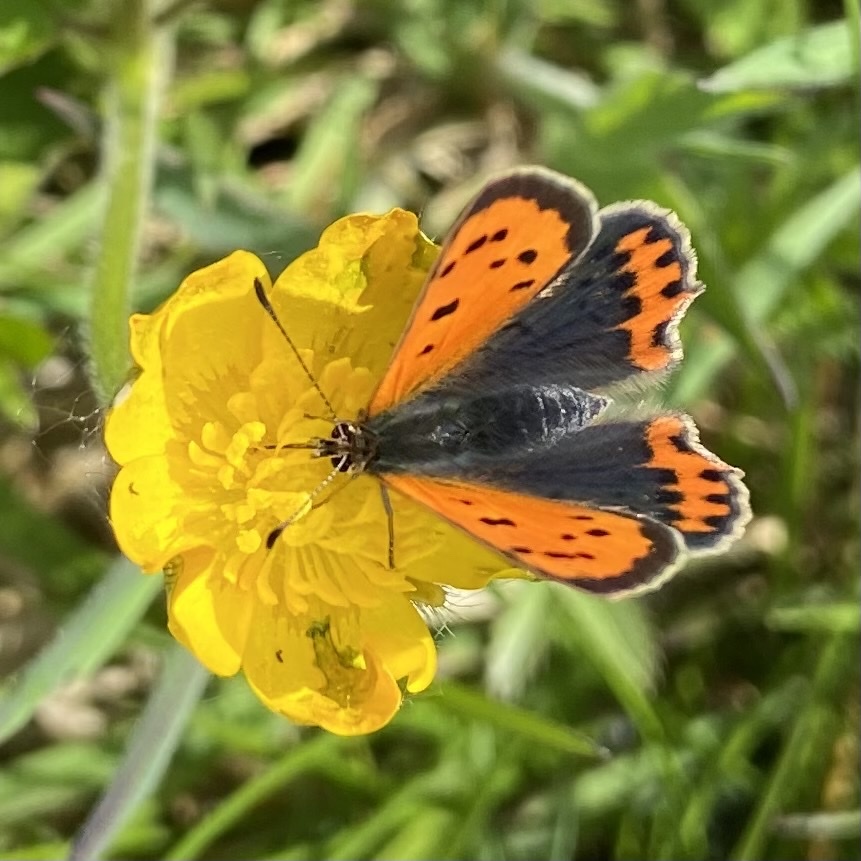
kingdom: Animalia
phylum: Arthropoda
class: Insecta
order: Lepidoptera
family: Lycaenidae
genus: Lycaena
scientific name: Lycaena phlaeas
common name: Small copper
